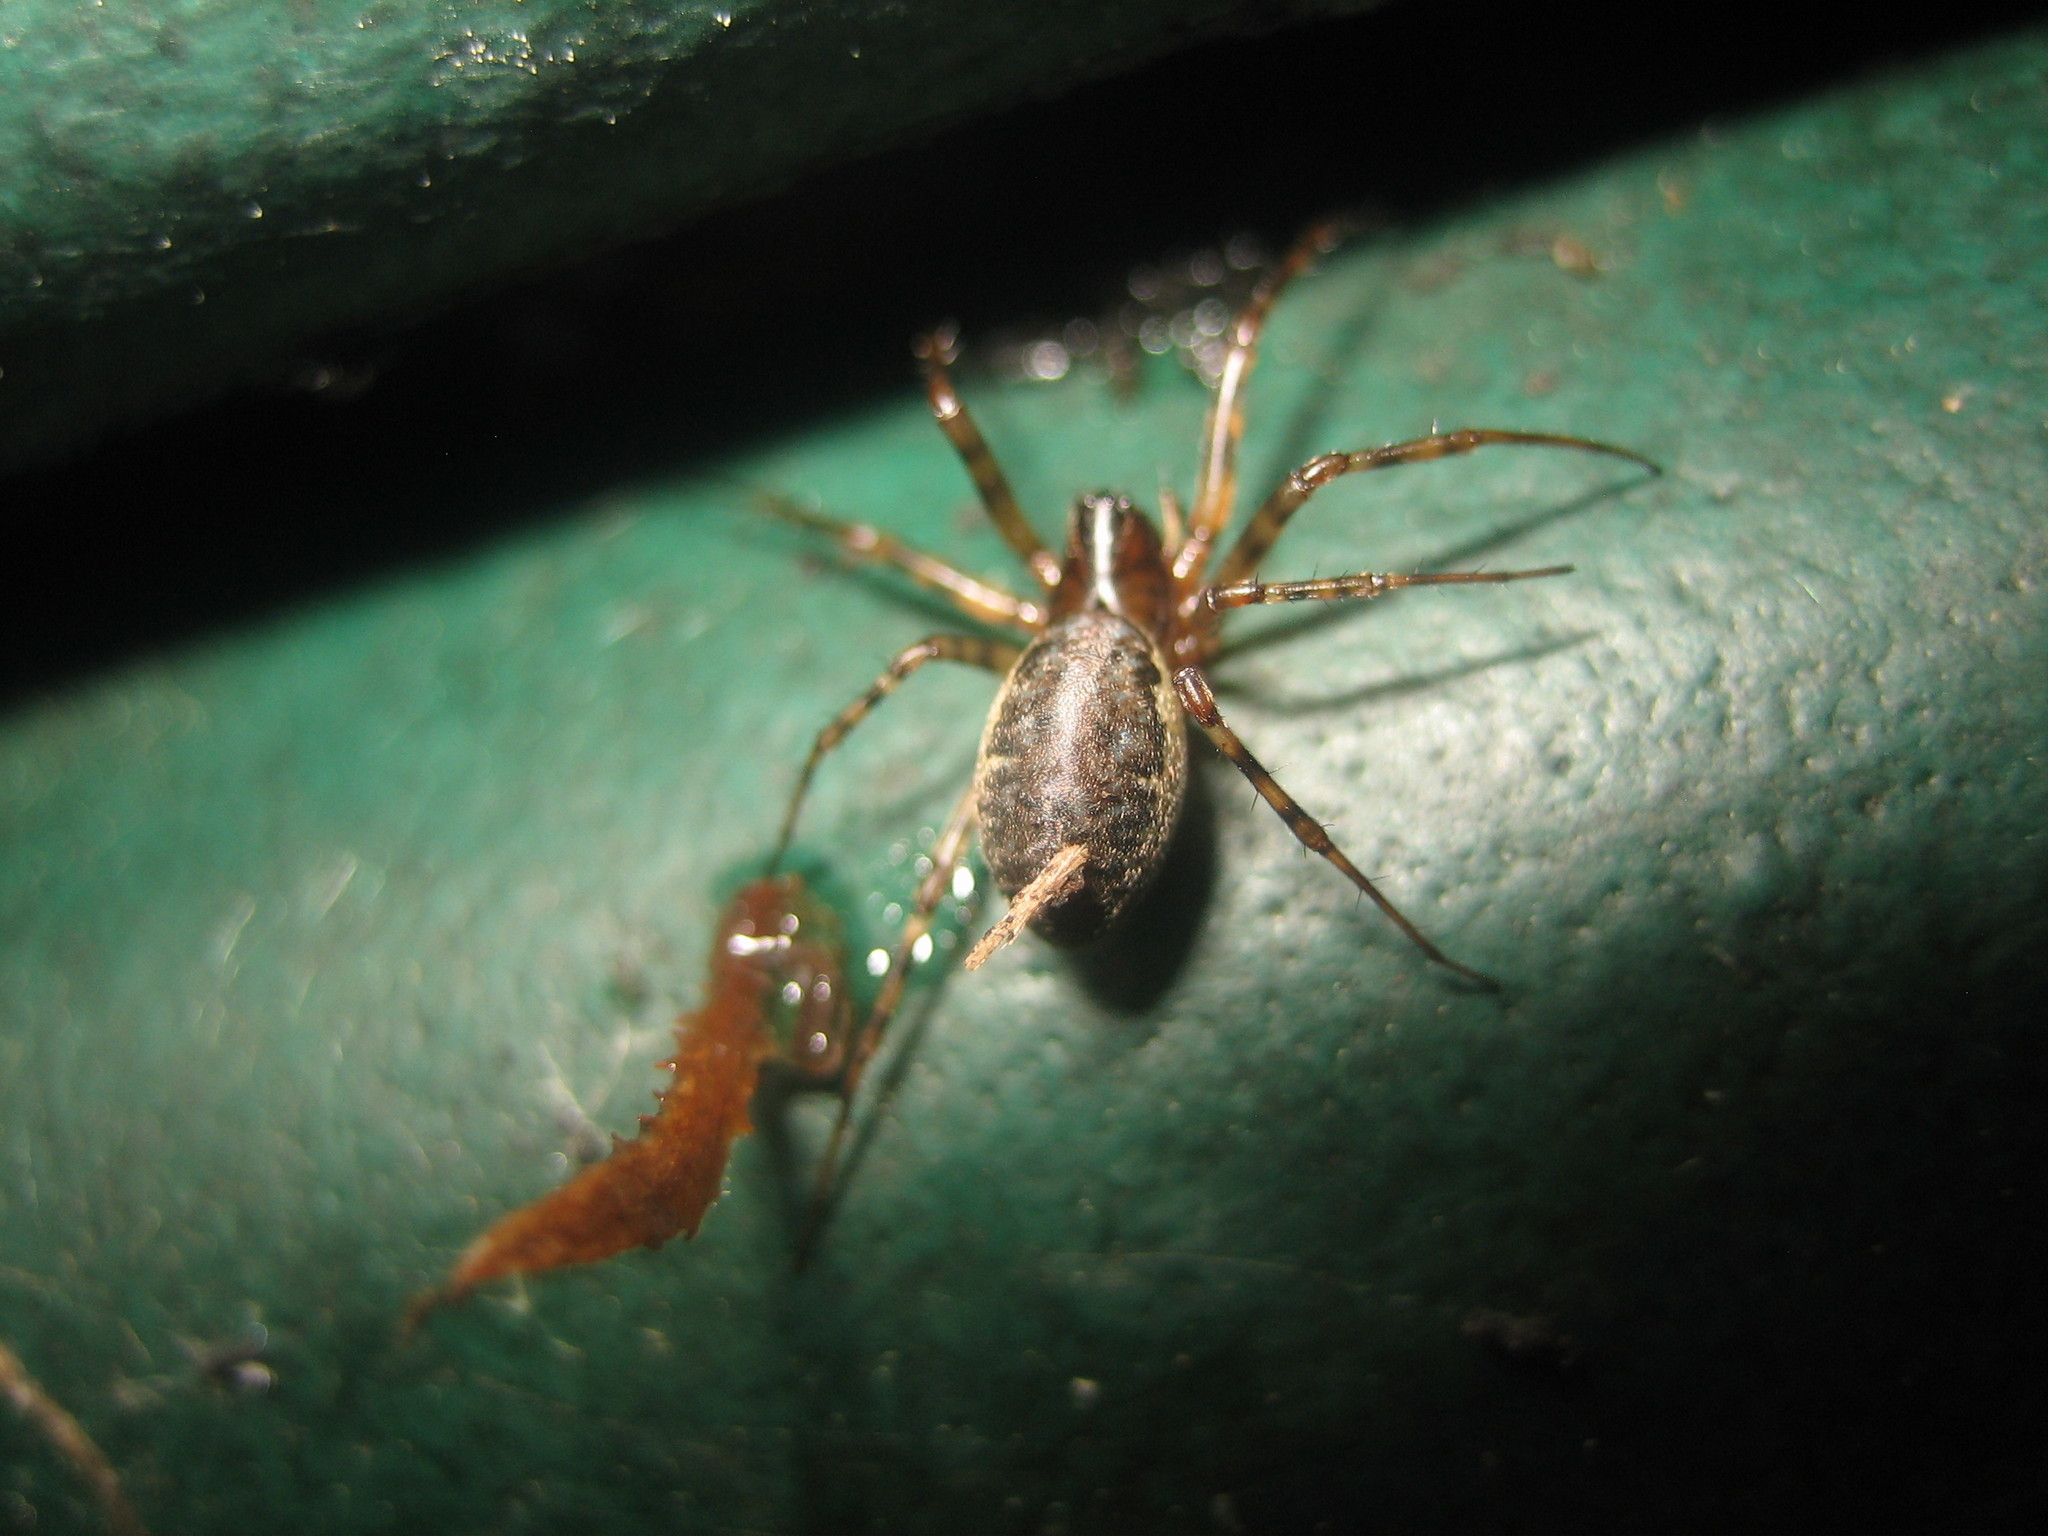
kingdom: Animalia
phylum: Arthropoda
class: Arachnida
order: Araneae
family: Linyphiidae
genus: Neriene
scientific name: Neriene montana
